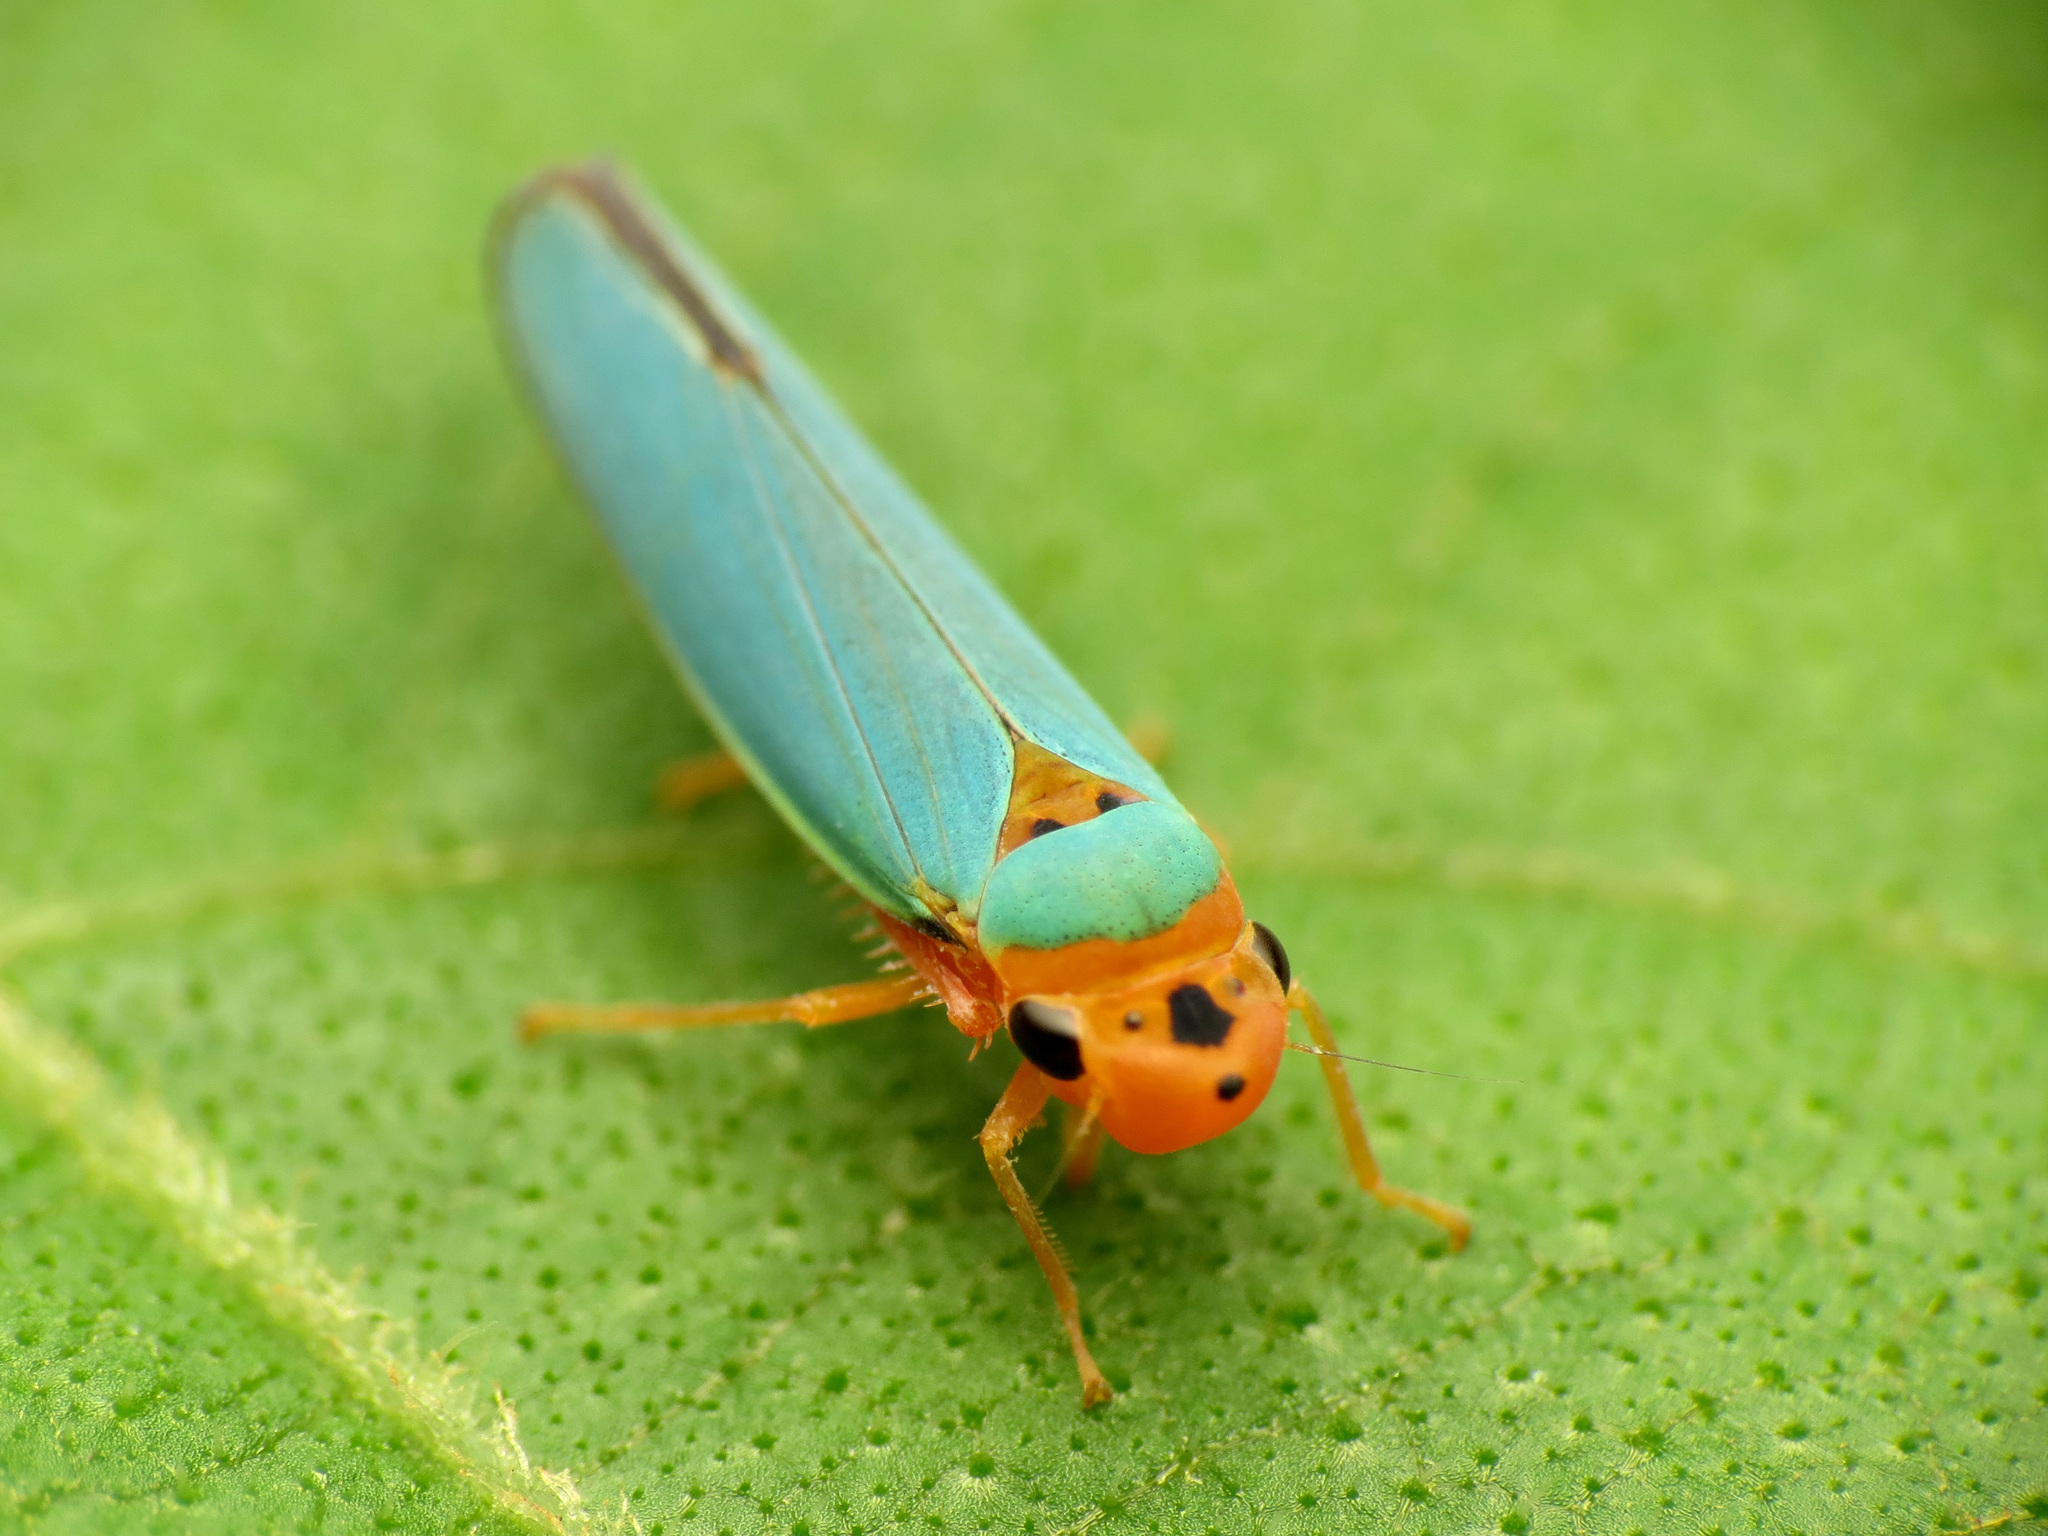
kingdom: Animalia
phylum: Arthropoda
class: Insecta
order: Hemiptera
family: Cicadellidae
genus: Macunolla
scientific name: Macunolla ventralis
